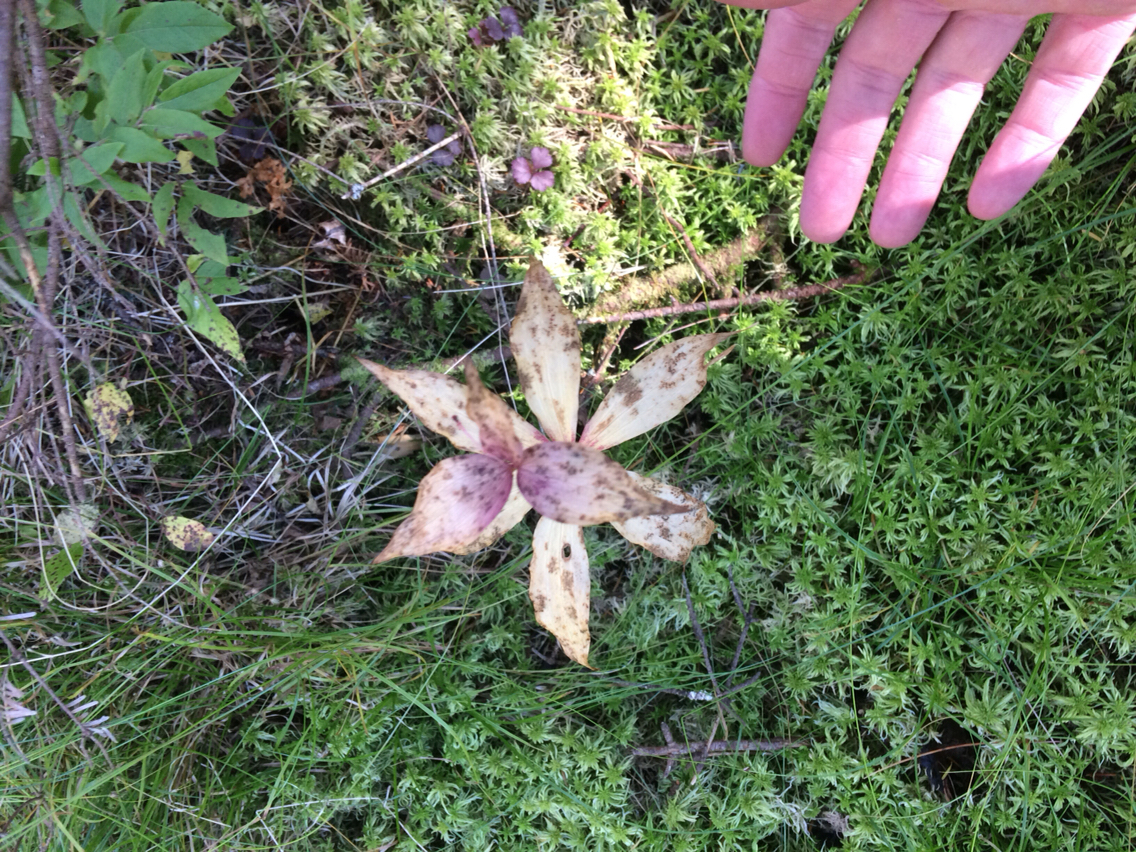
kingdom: Plantae
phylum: Tracheophyta
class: Liliopsida
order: Liliales
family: Liliaceae
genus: Medeola
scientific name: Medeola virginiana
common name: Indian cucumber-root
